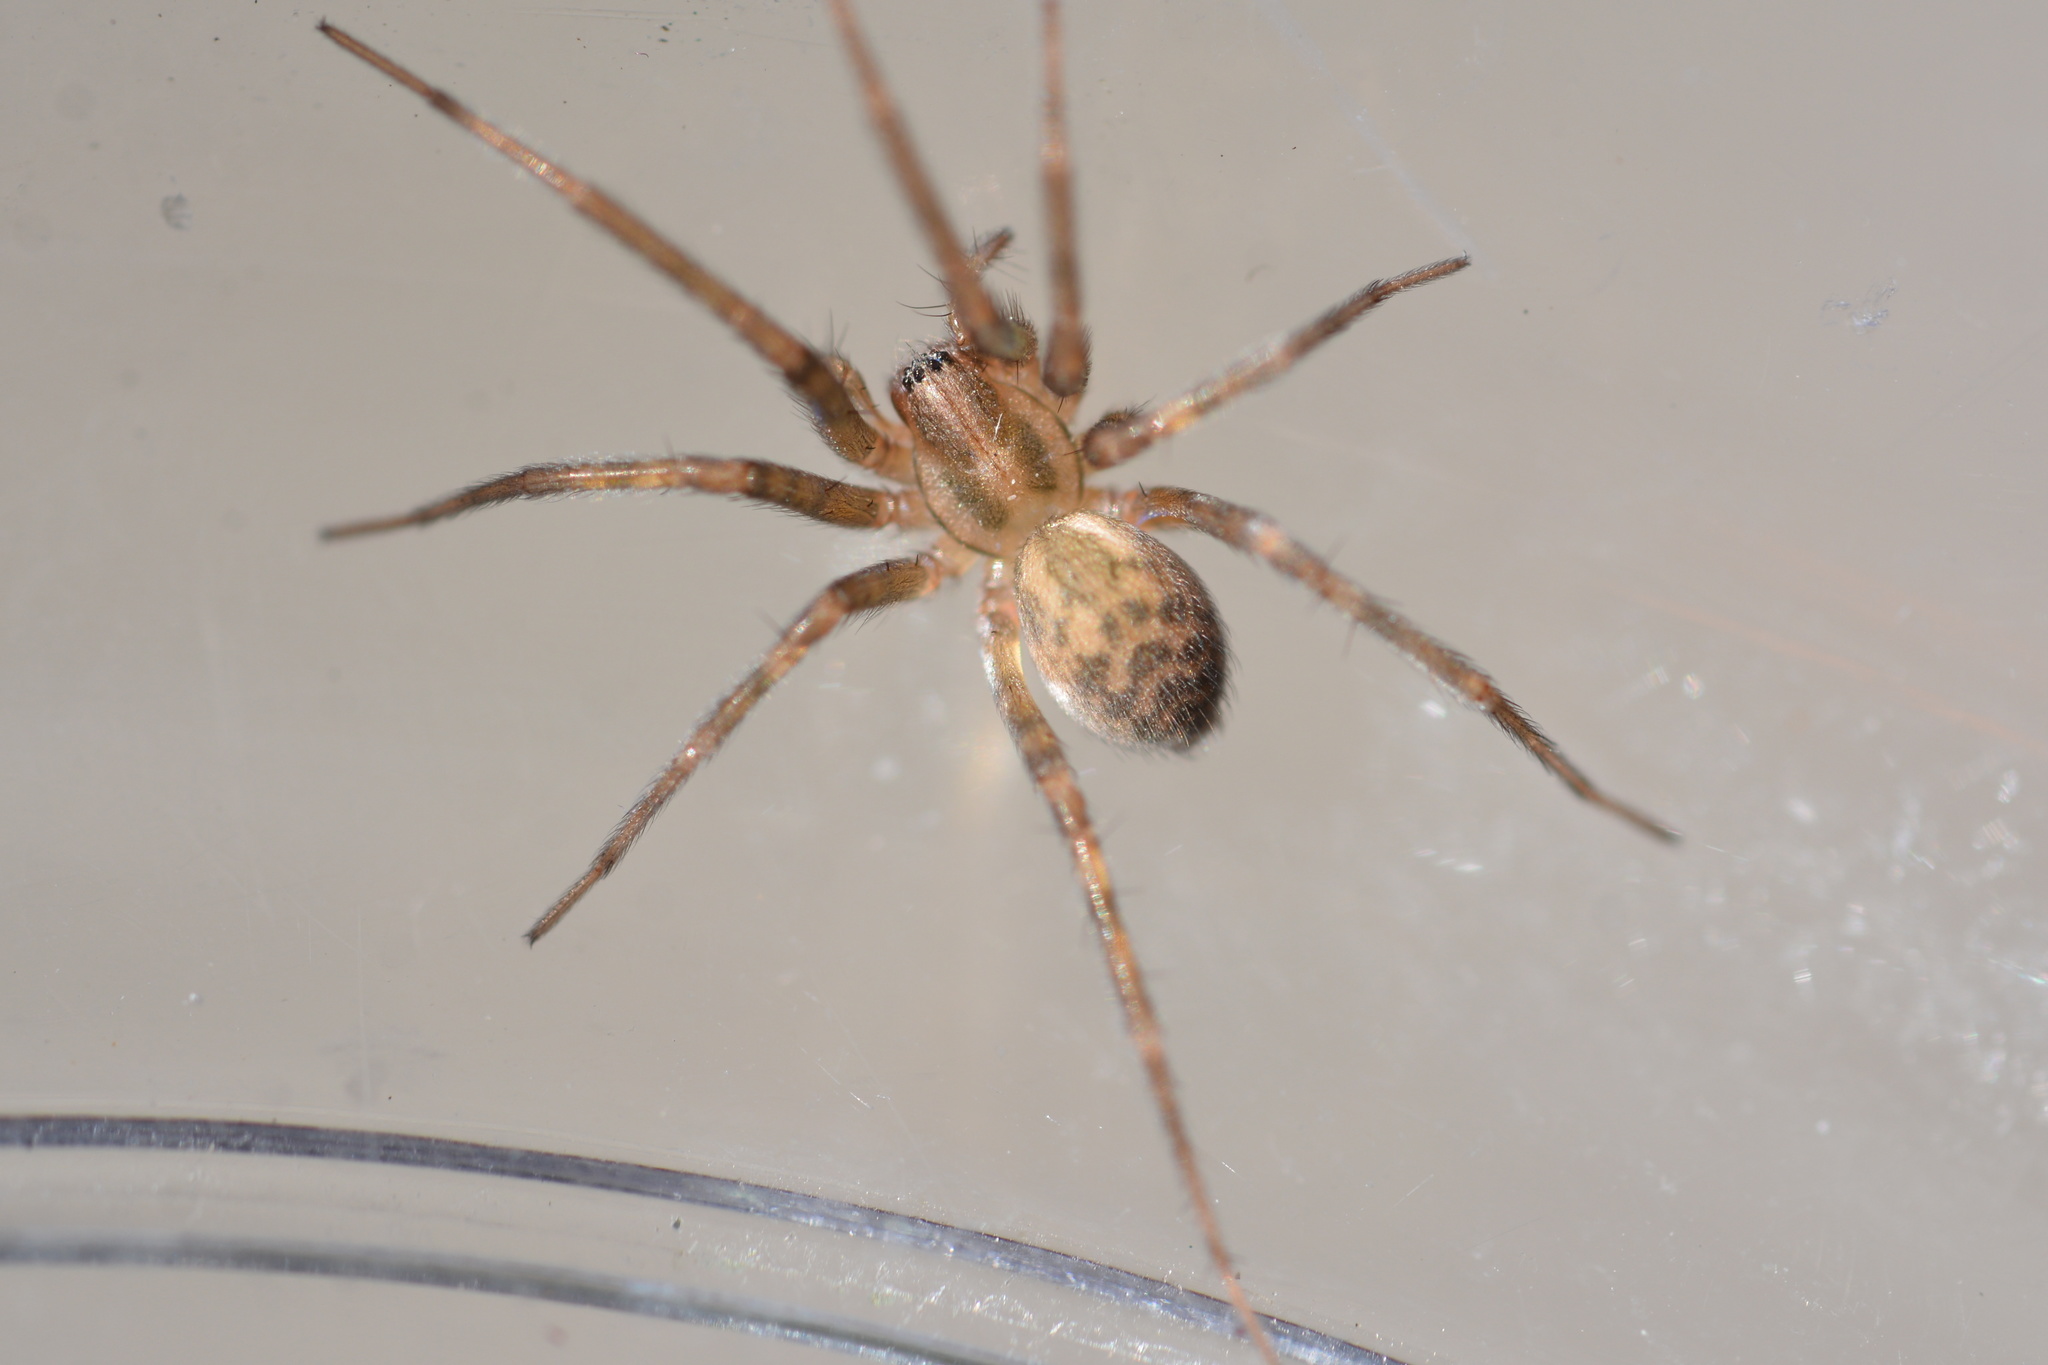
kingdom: Animalia
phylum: Arthropoda
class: Arachnida
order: Araneae
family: Agelenidae
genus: Tegenaria
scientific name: Tegenaria domestica
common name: Barn funnel weaver
